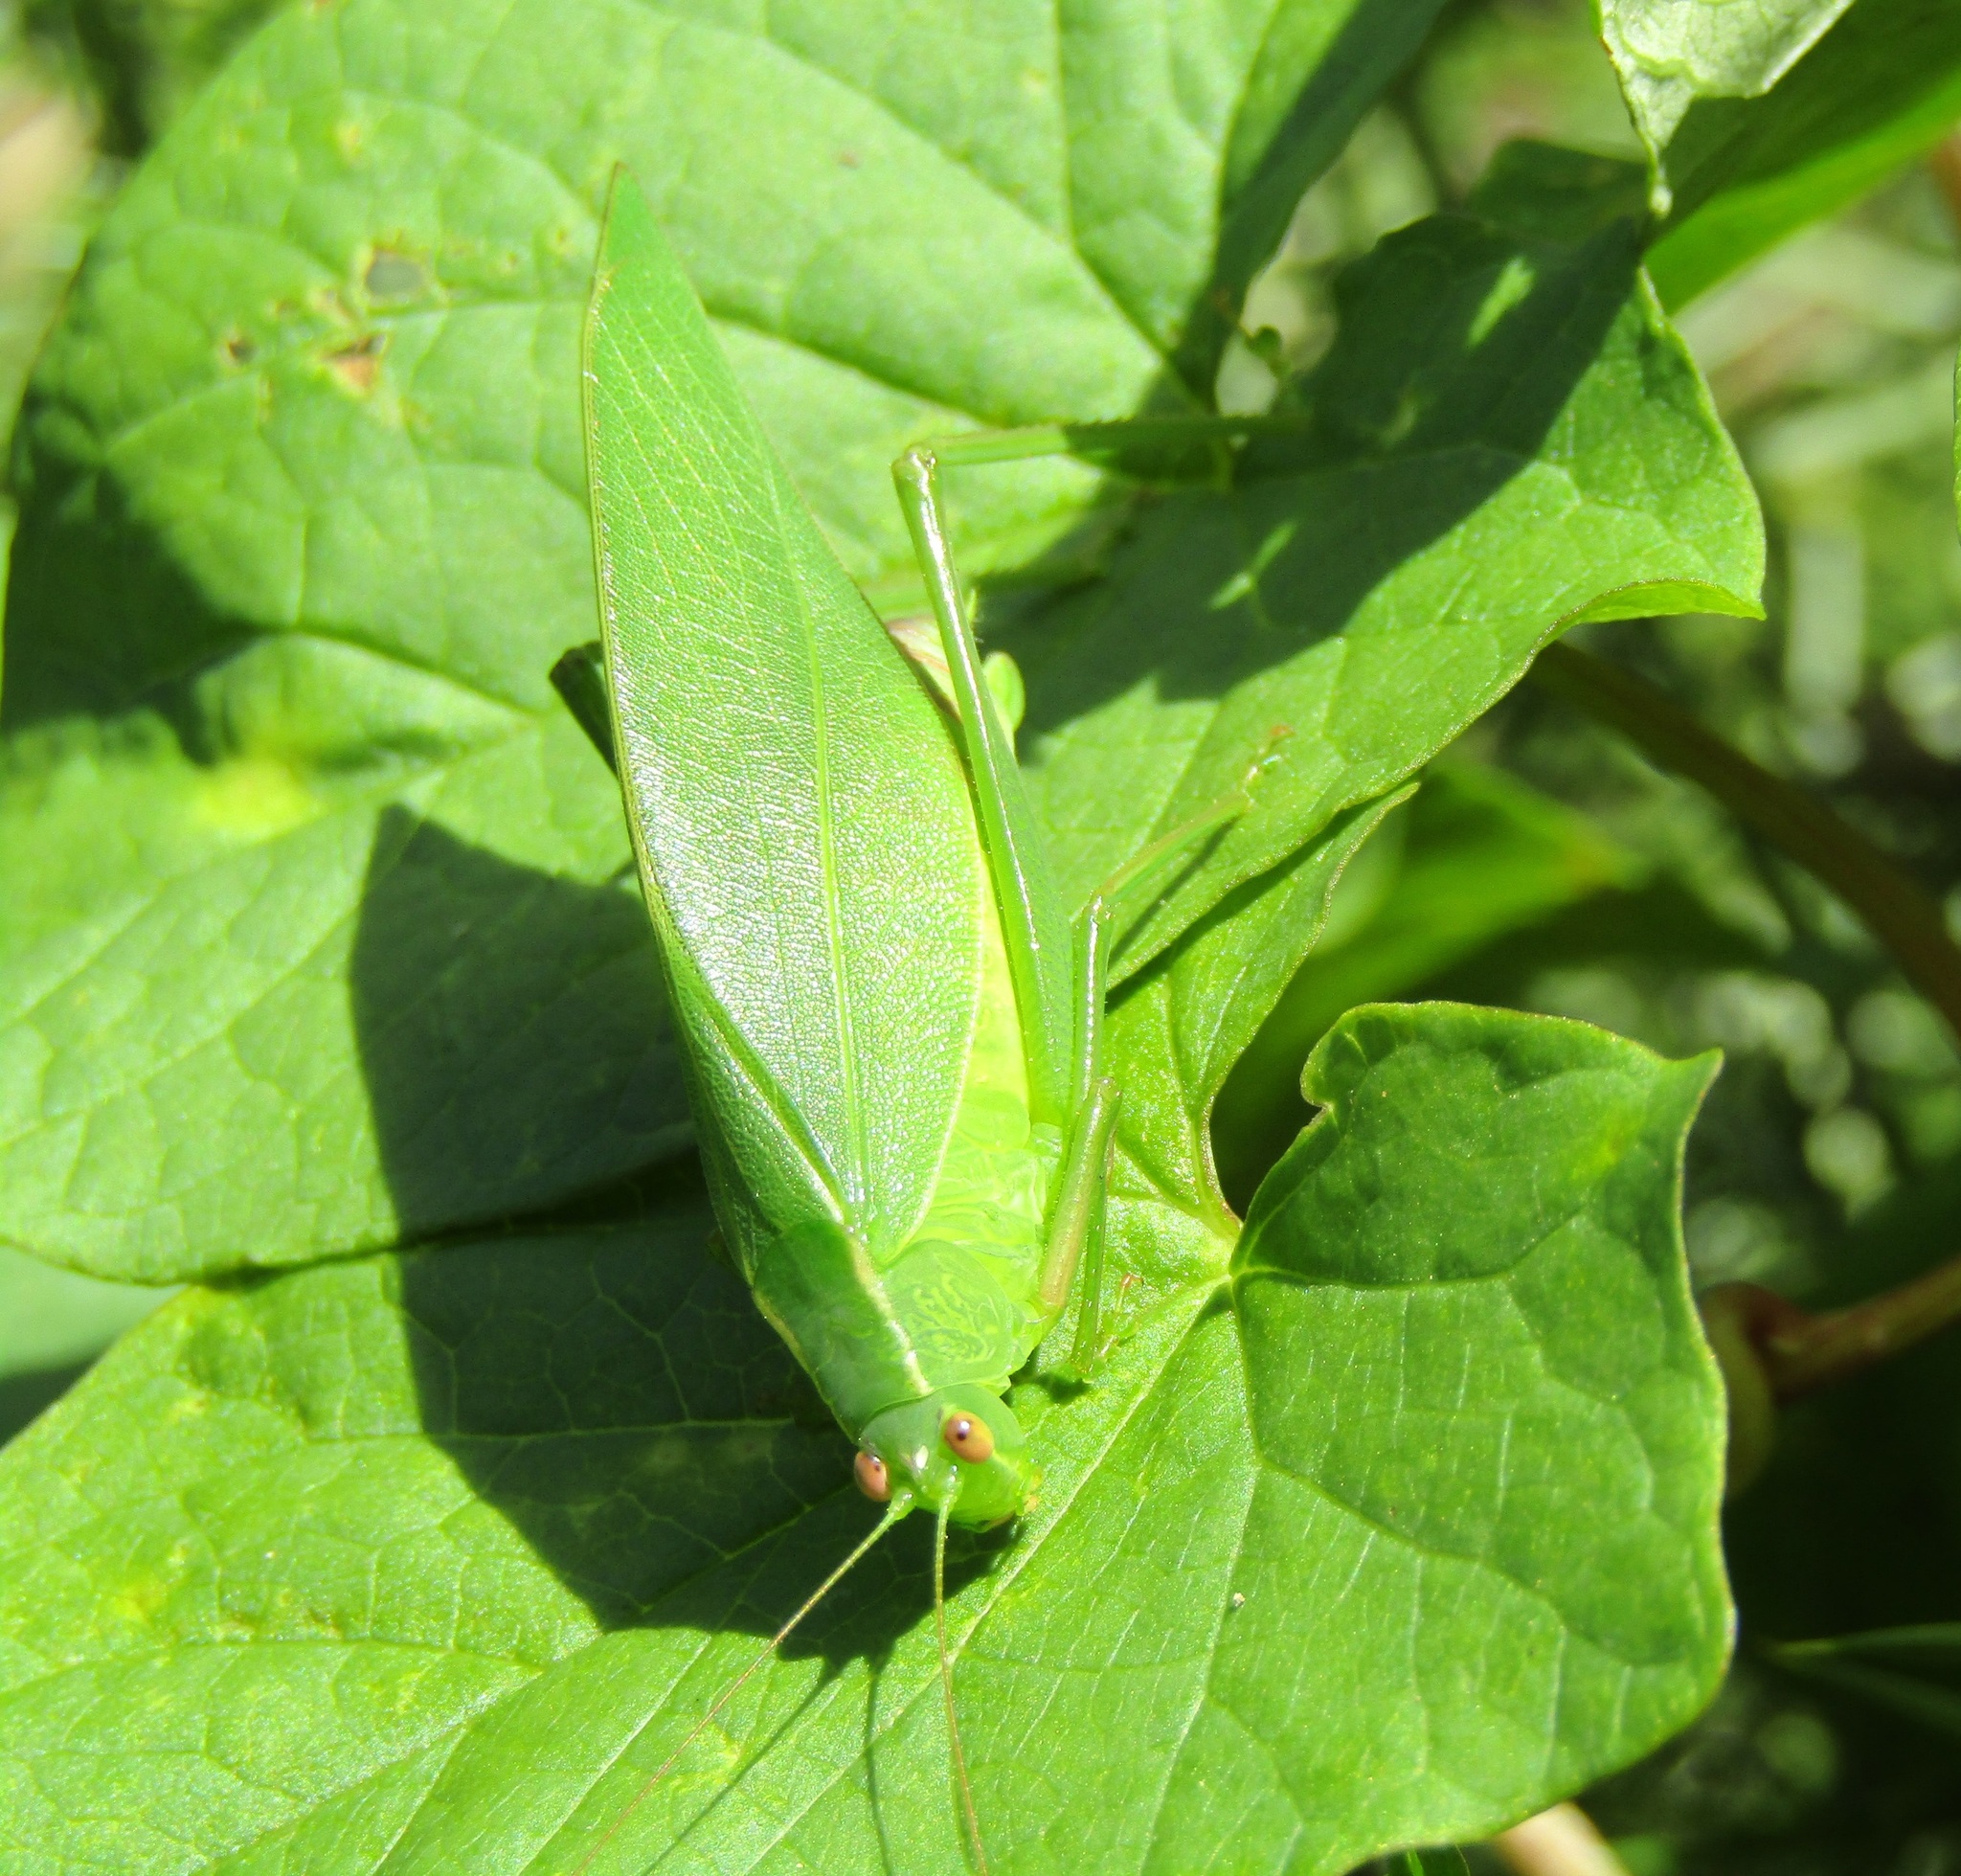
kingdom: Animalia
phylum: Arthropoda
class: Insecta
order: Orthoptera
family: Tettigoniidae
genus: Caedicia
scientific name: Caedicia simplex
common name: Common garden katydid
